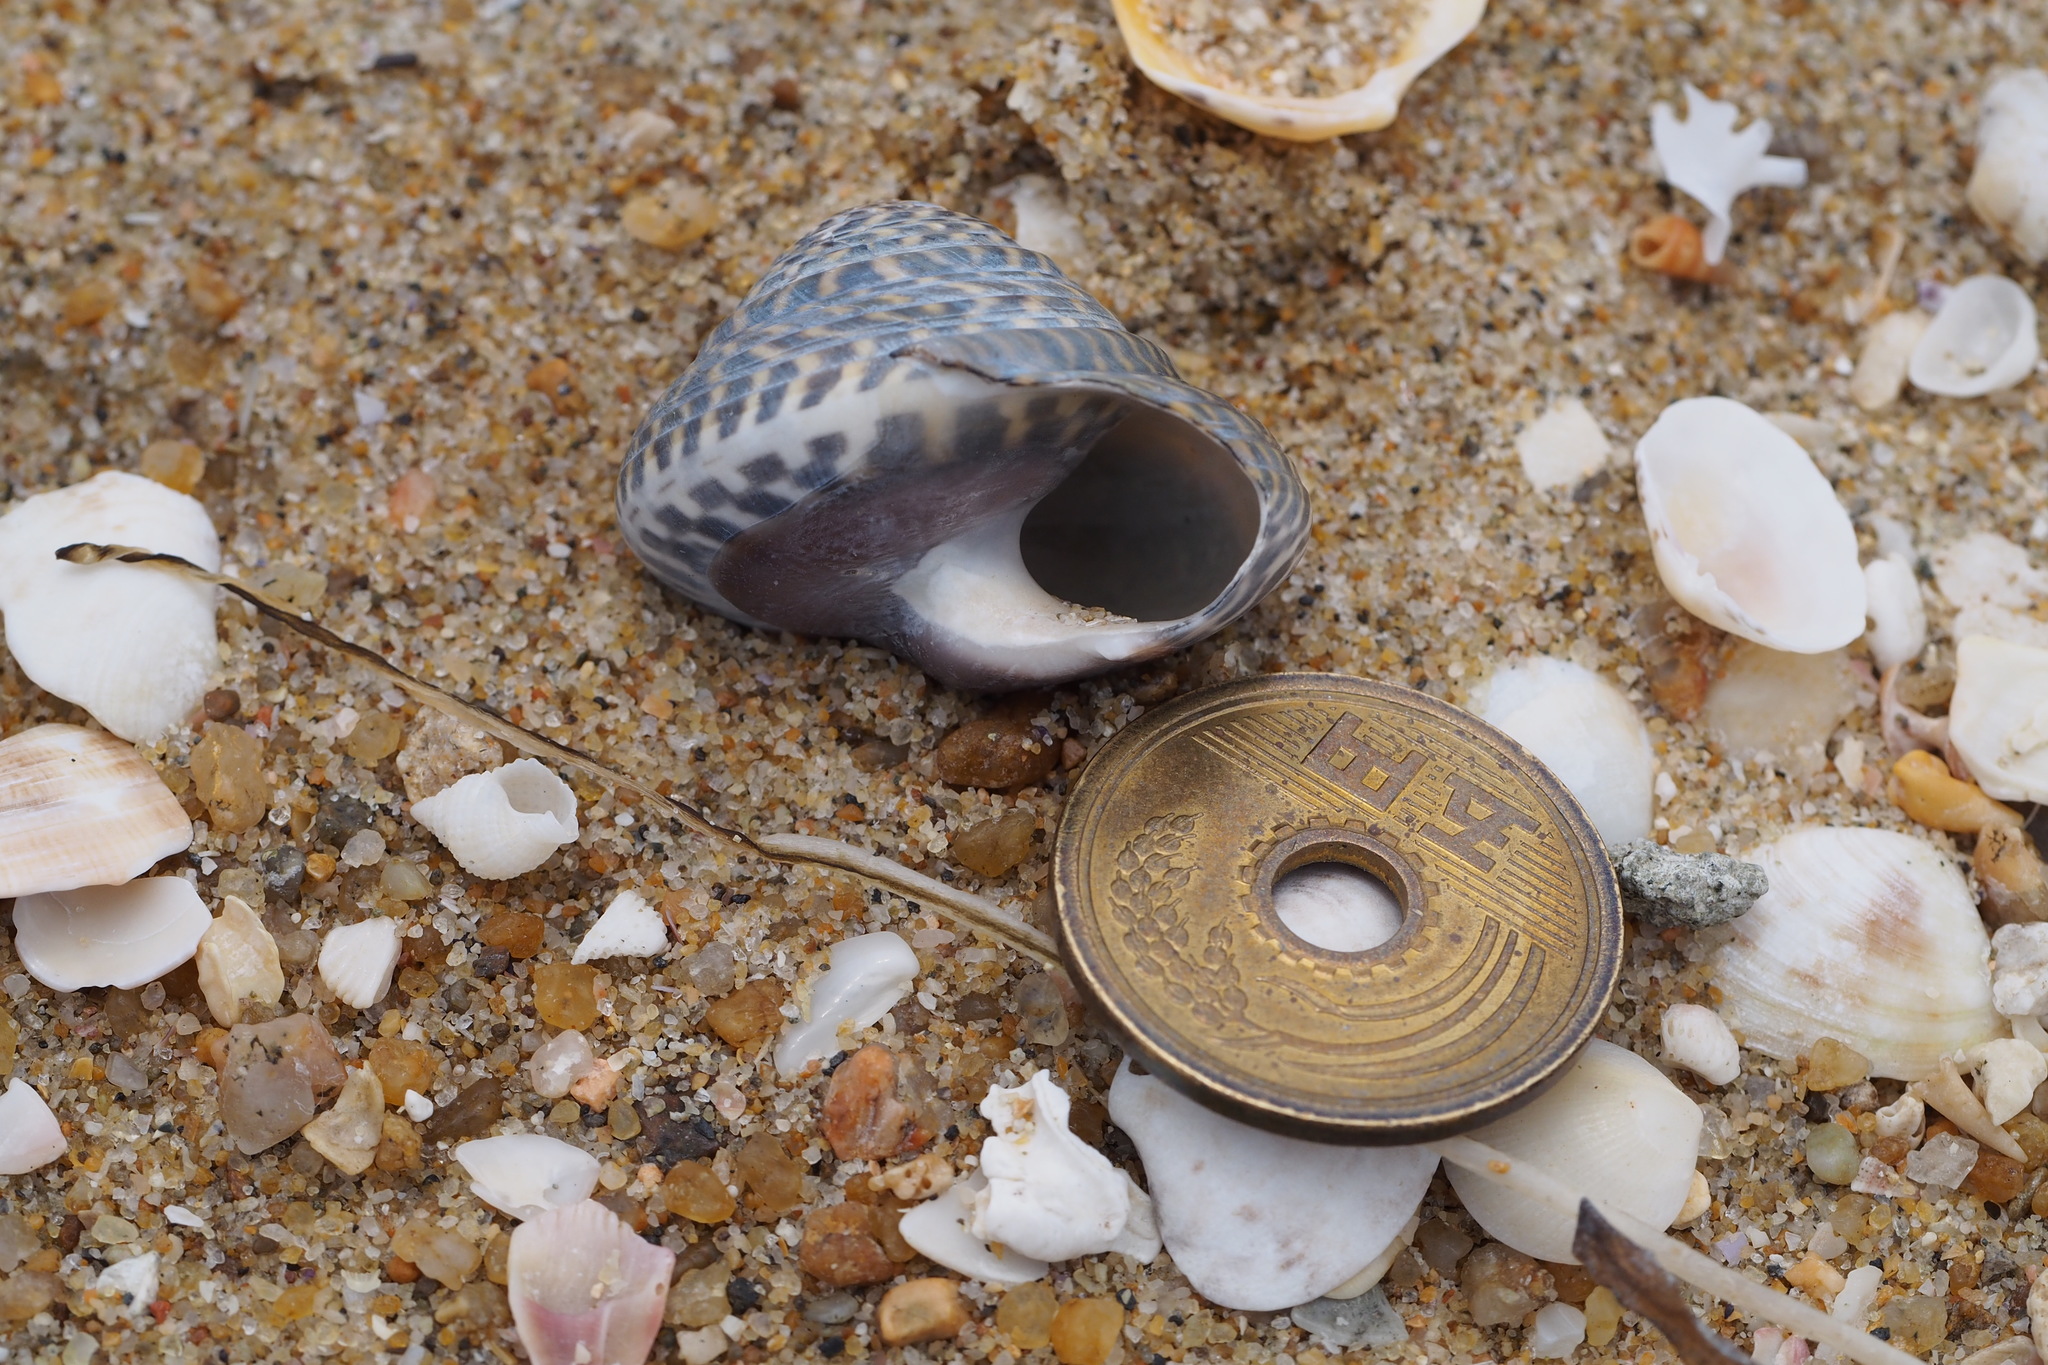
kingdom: Animalia
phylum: Mollusca
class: Gastropoda
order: Trochida
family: Trochidae
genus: Umbonium
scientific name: Umbonium costatum
